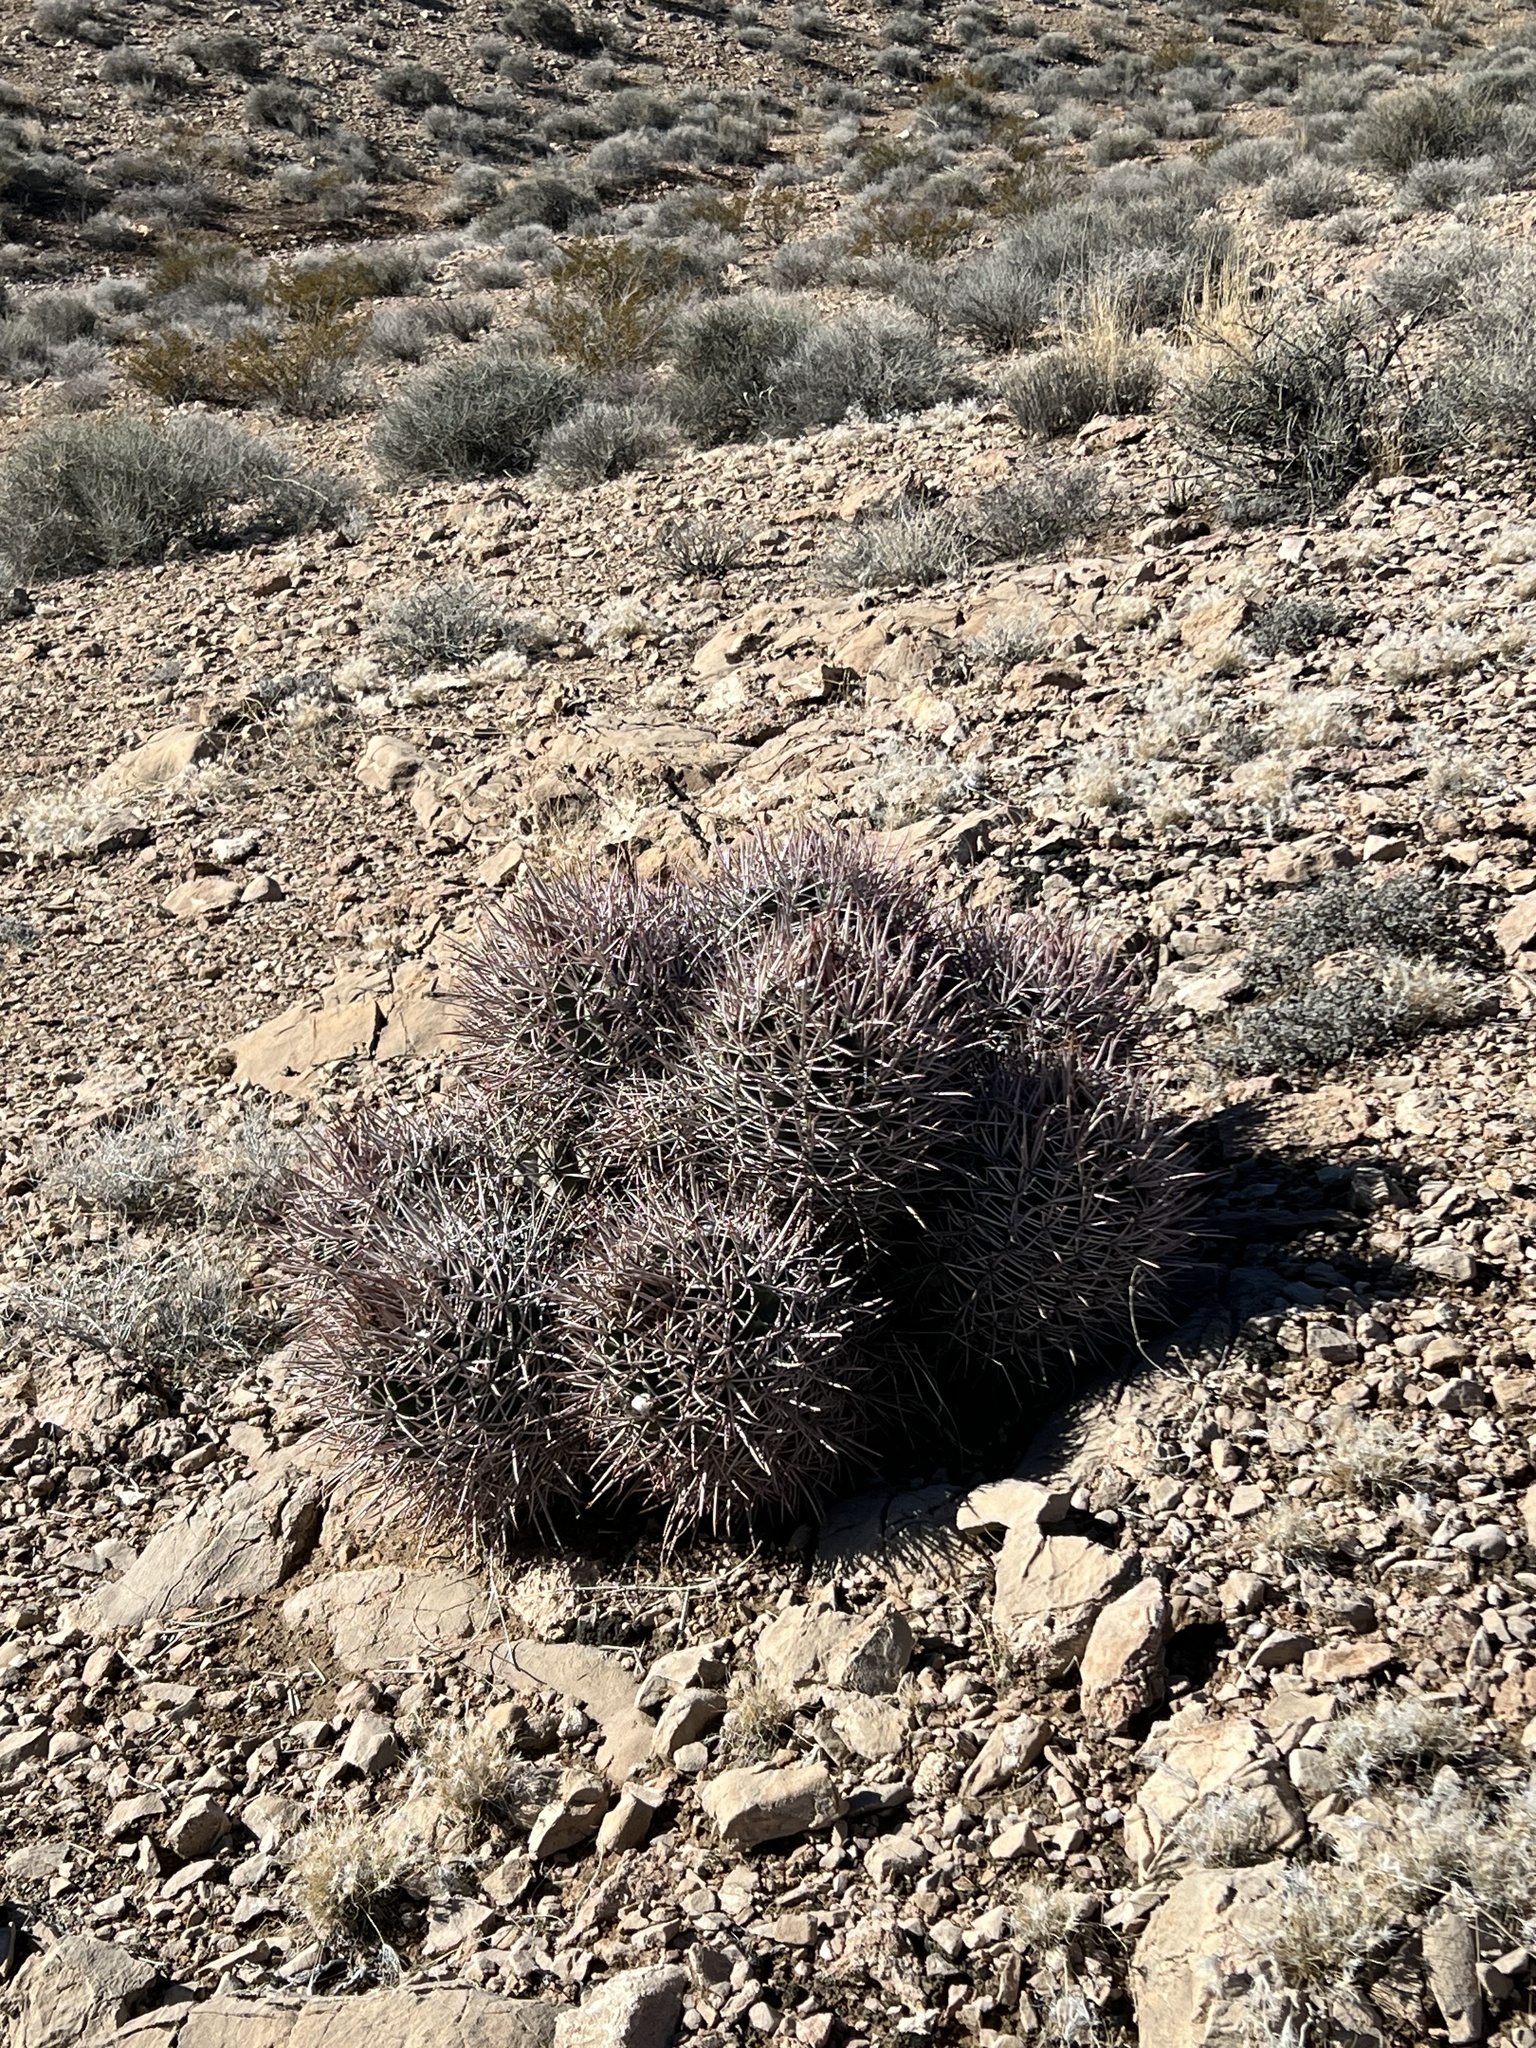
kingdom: Plantae
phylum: Tracheophyta
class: Magnoliopsida
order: Caryophyllales
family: Cactaceae
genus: Echinocactus
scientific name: Echinocactus polycephalus
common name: Cottontop cactus
